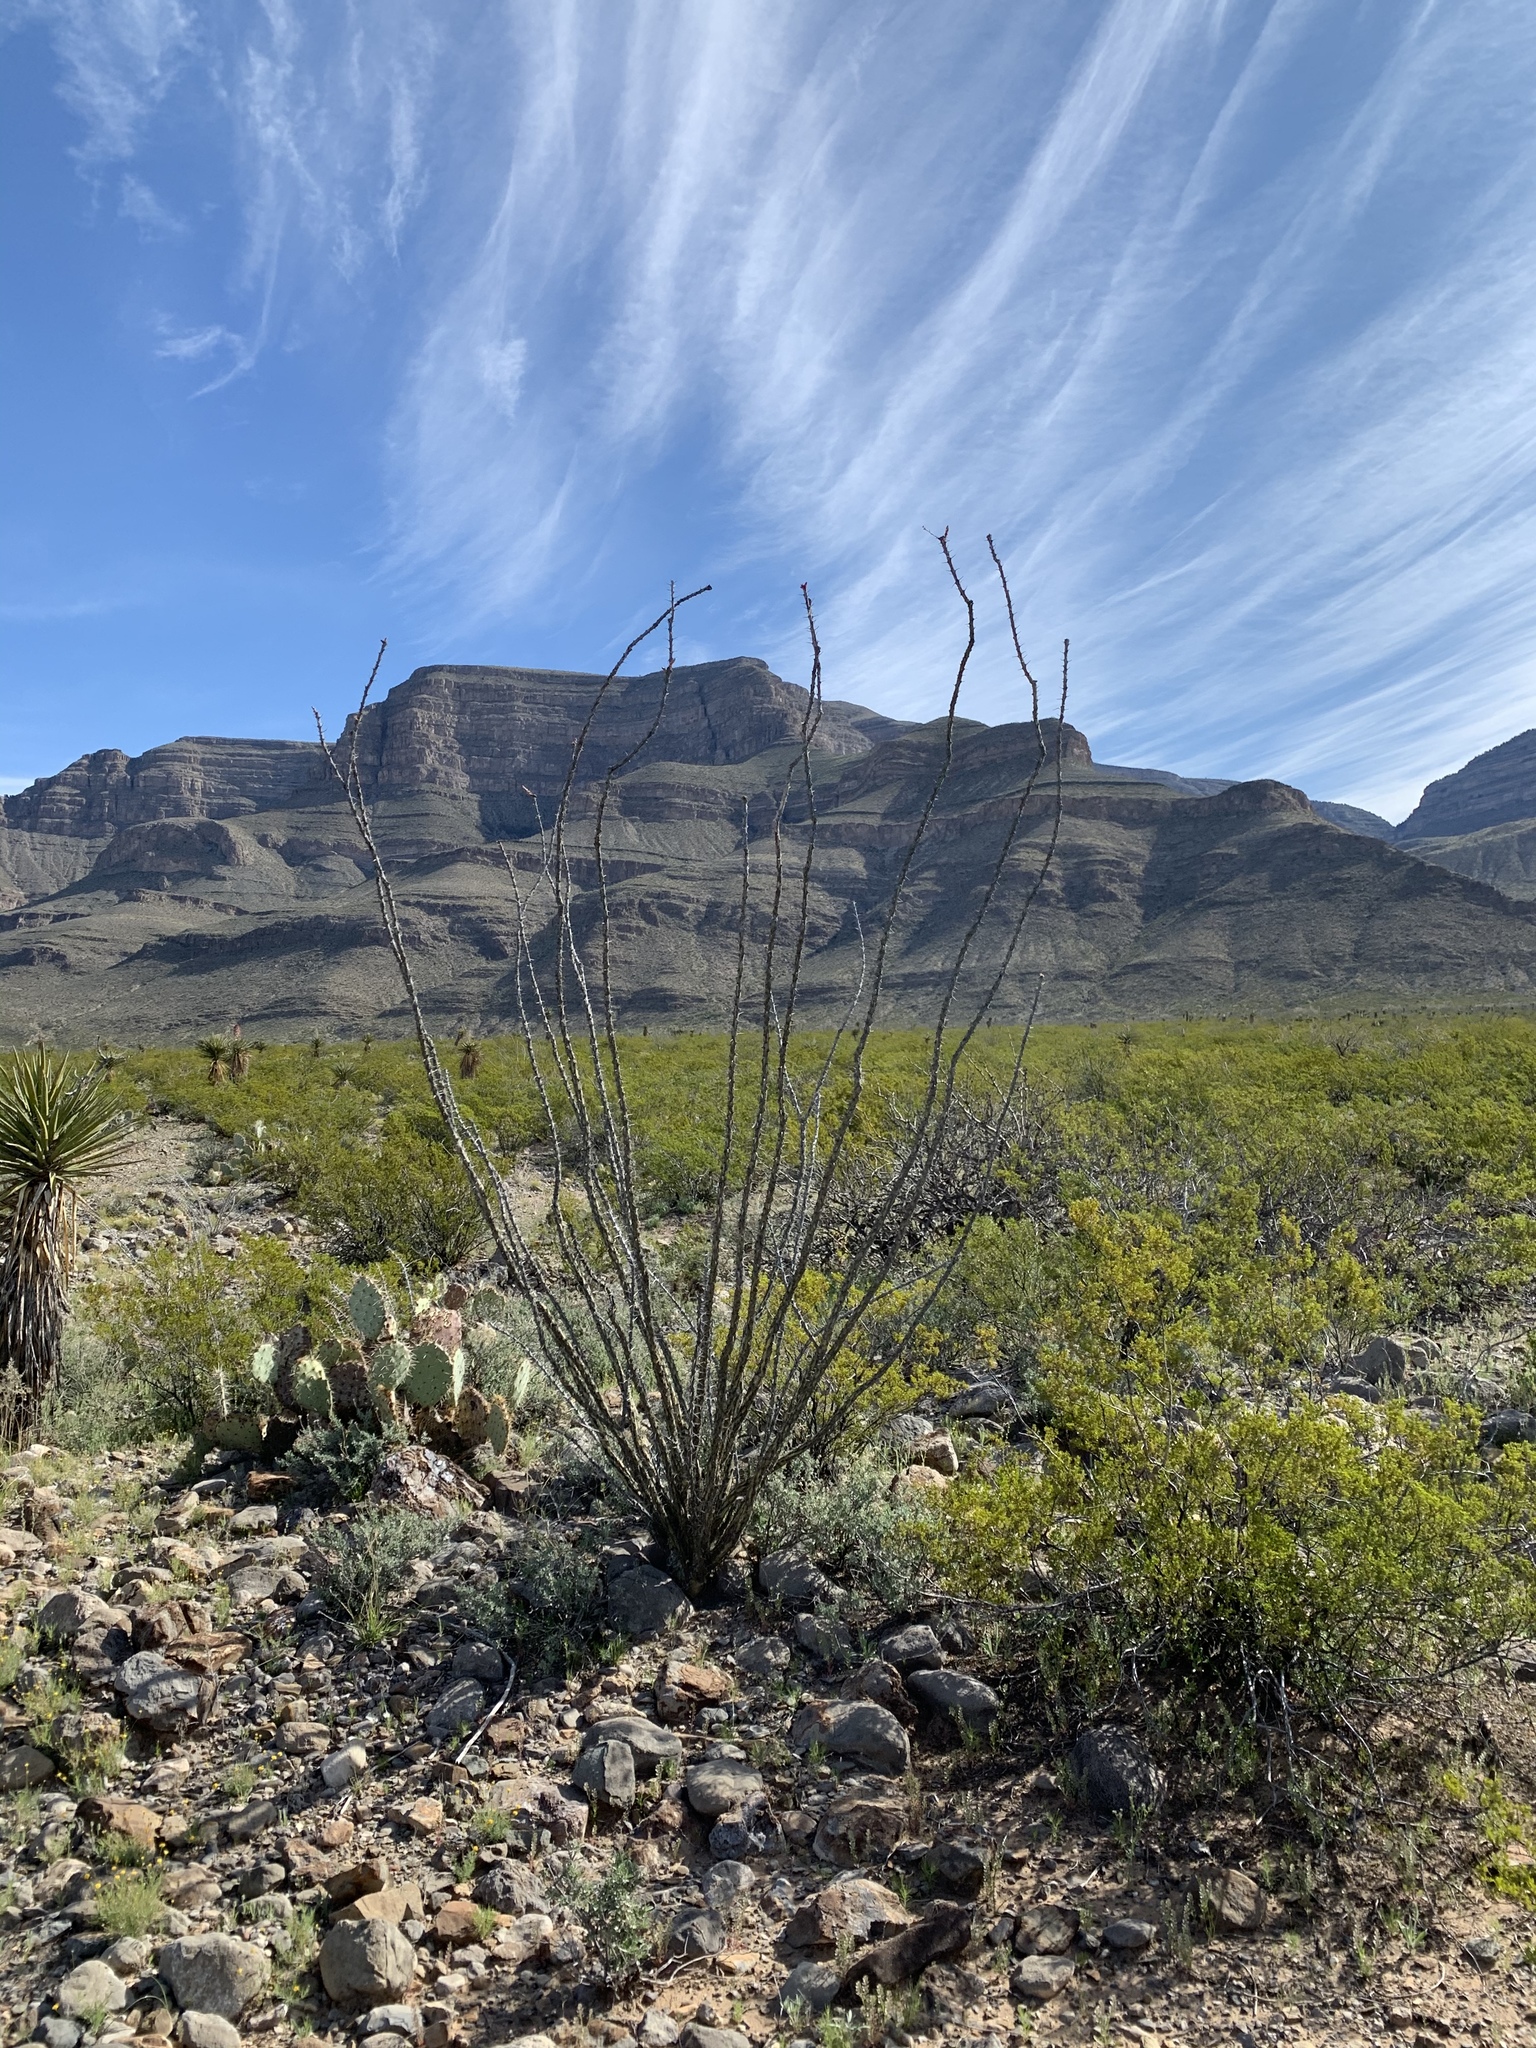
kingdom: Plantae
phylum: Tracheophyta
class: Magnoliopsida
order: Ericales
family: Fouquieriaceae
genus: Fouquieria
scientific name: Fouquieria splendens
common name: Vine-cactus
